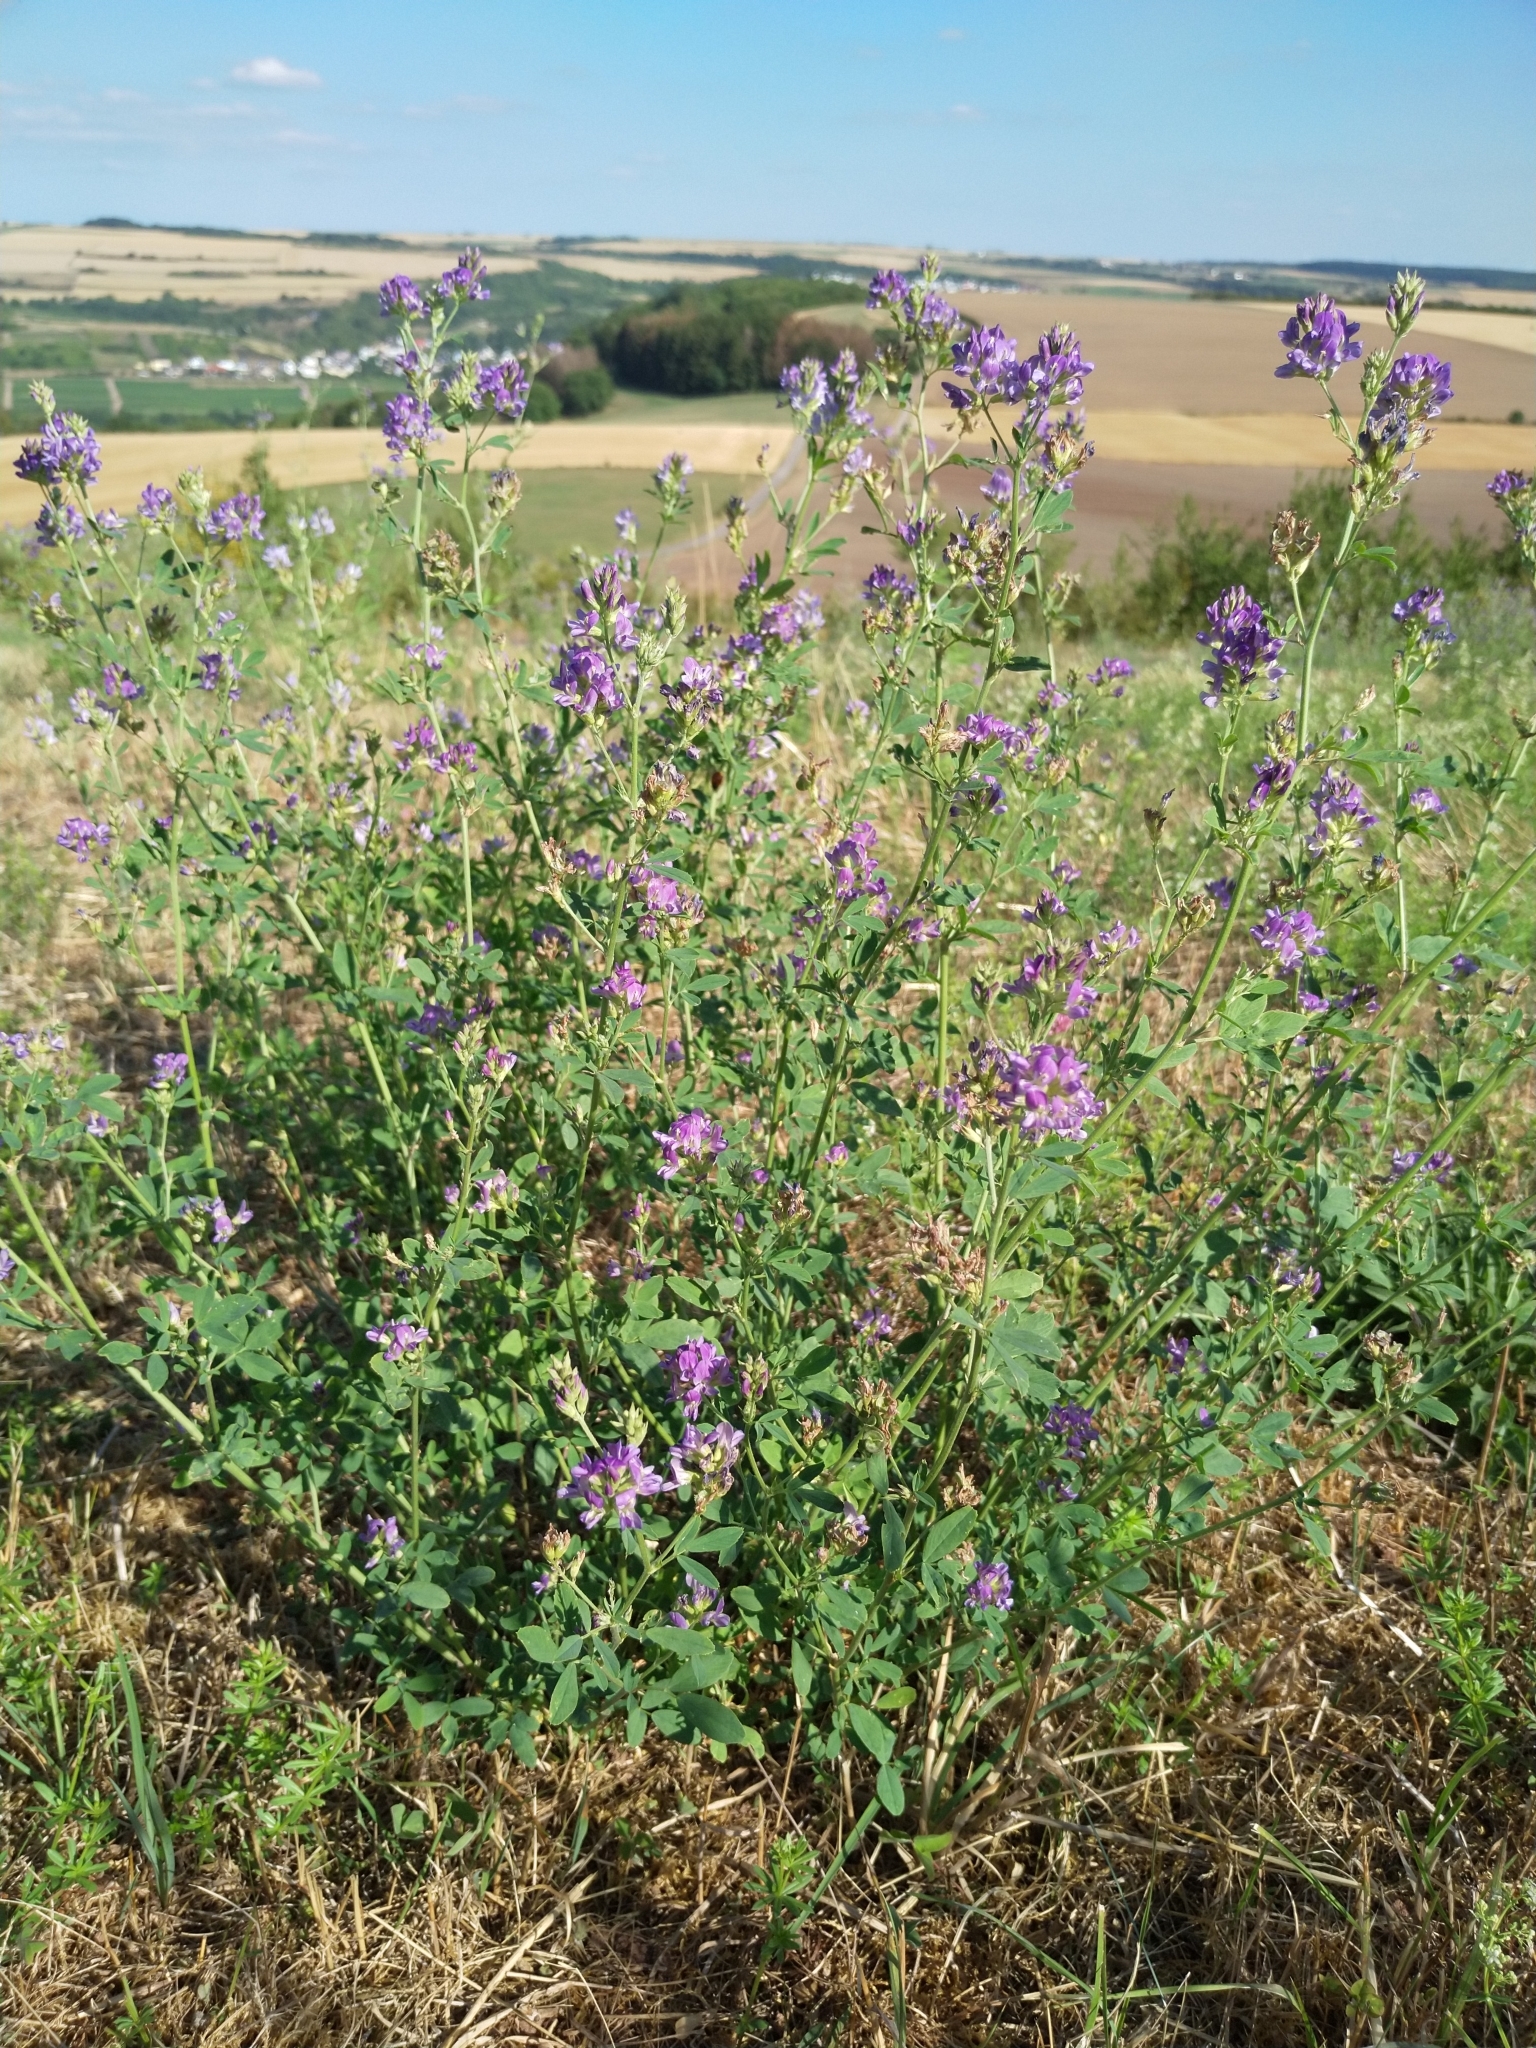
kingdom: Plantae
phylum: Tracheophyta
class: Magnoliopsida
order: Fabales
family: Fabaceae
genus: Medicago
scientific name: Medicago sativa
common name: Alfalfa
